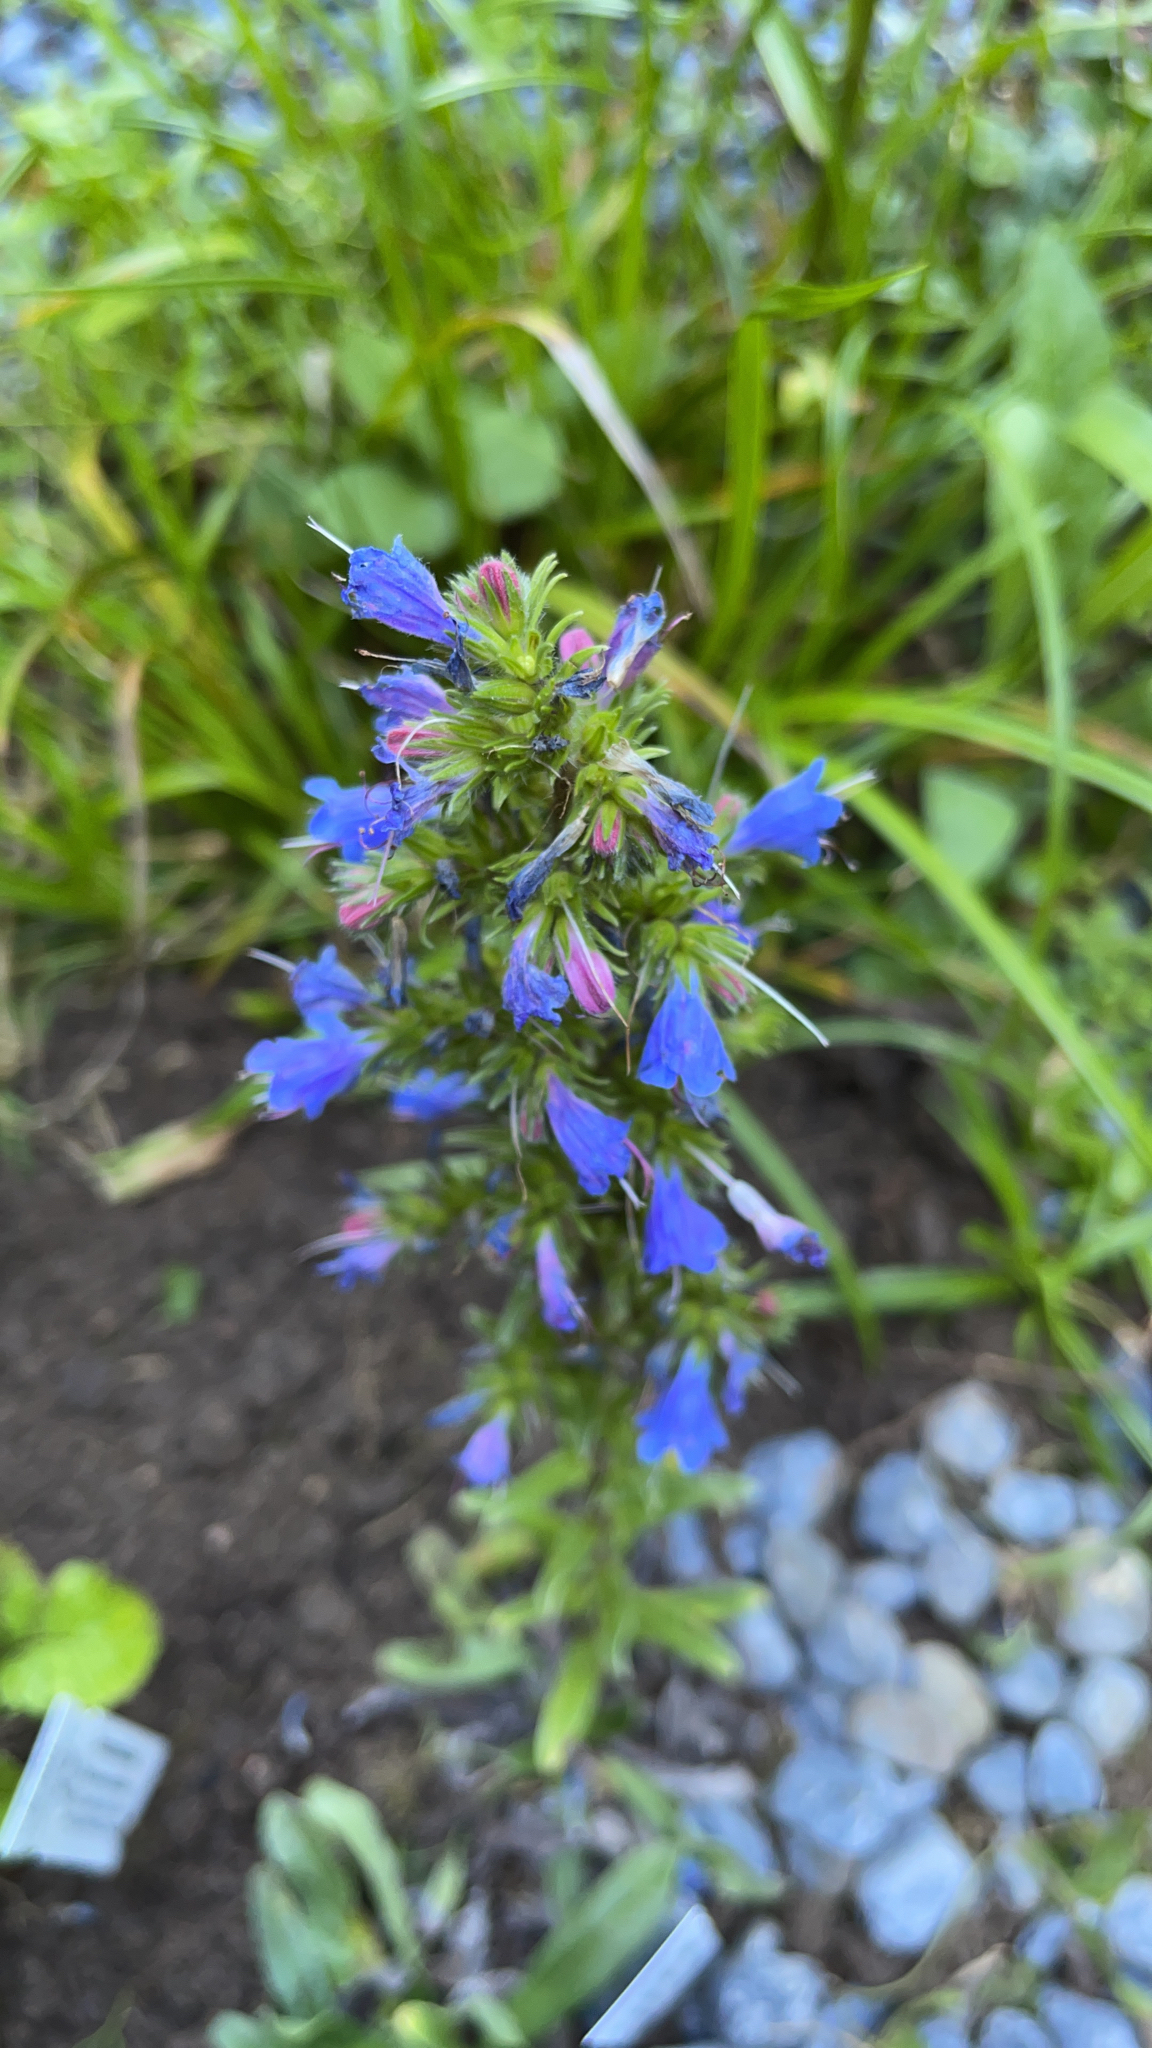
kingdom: Plantae
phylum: Tracheophyta
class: Magnoliopsida
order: Boraginales
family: Boraginaceae
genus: Echium
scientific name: Echium vulgare
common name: Common viper's bugloss
